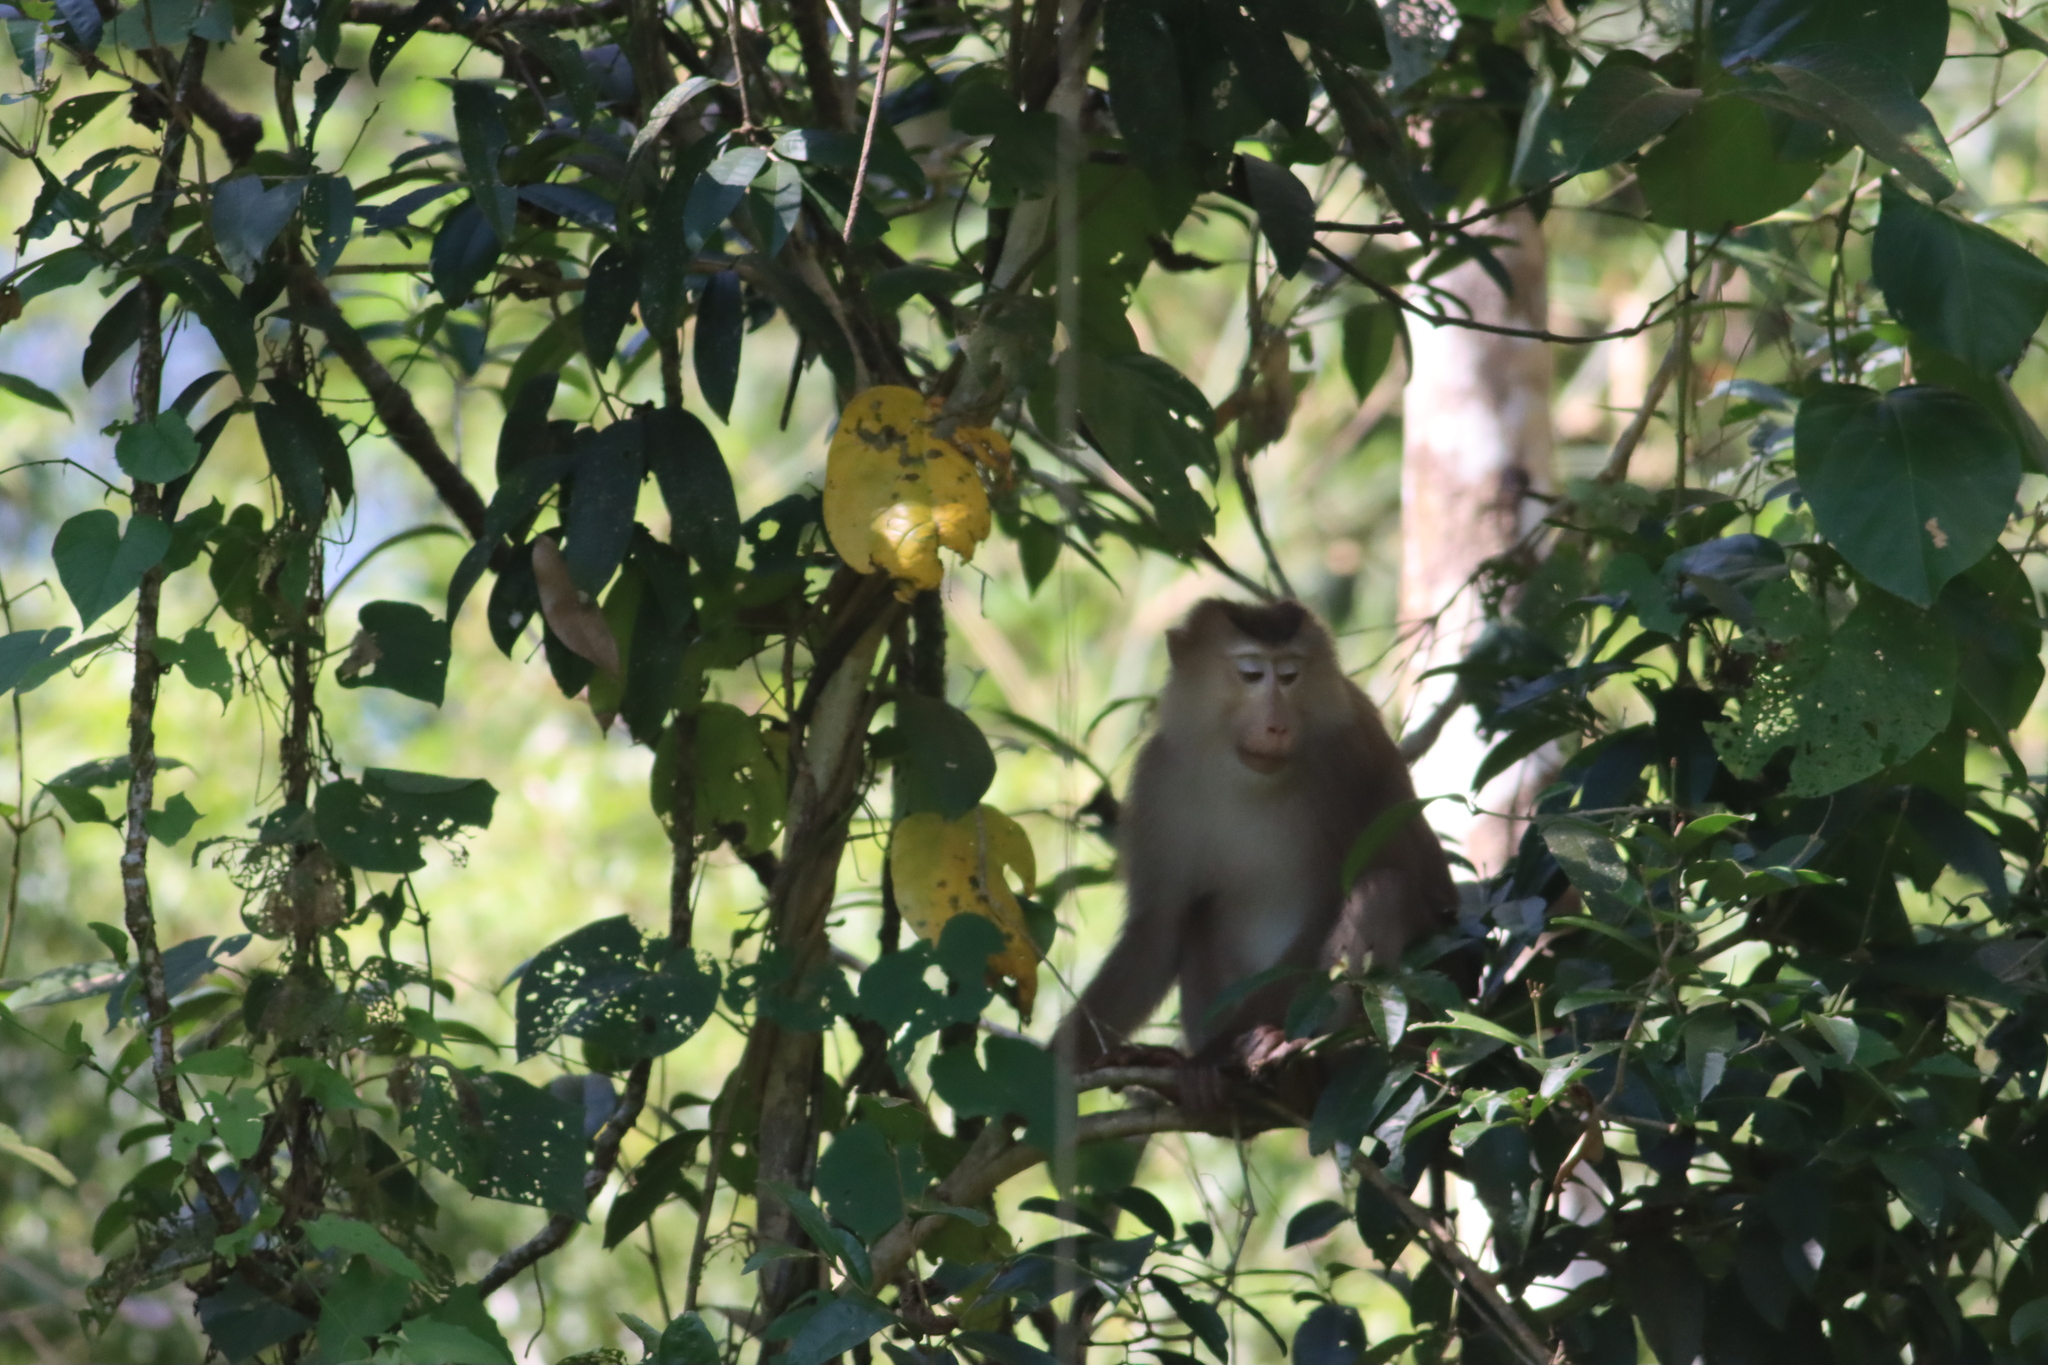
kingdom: Animalia
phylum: Chordata
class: Mammalia
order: Primates
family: Cercopithecidae
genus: Macaca
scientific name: Macaca leonina
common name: Northern pig-tailed macaque
